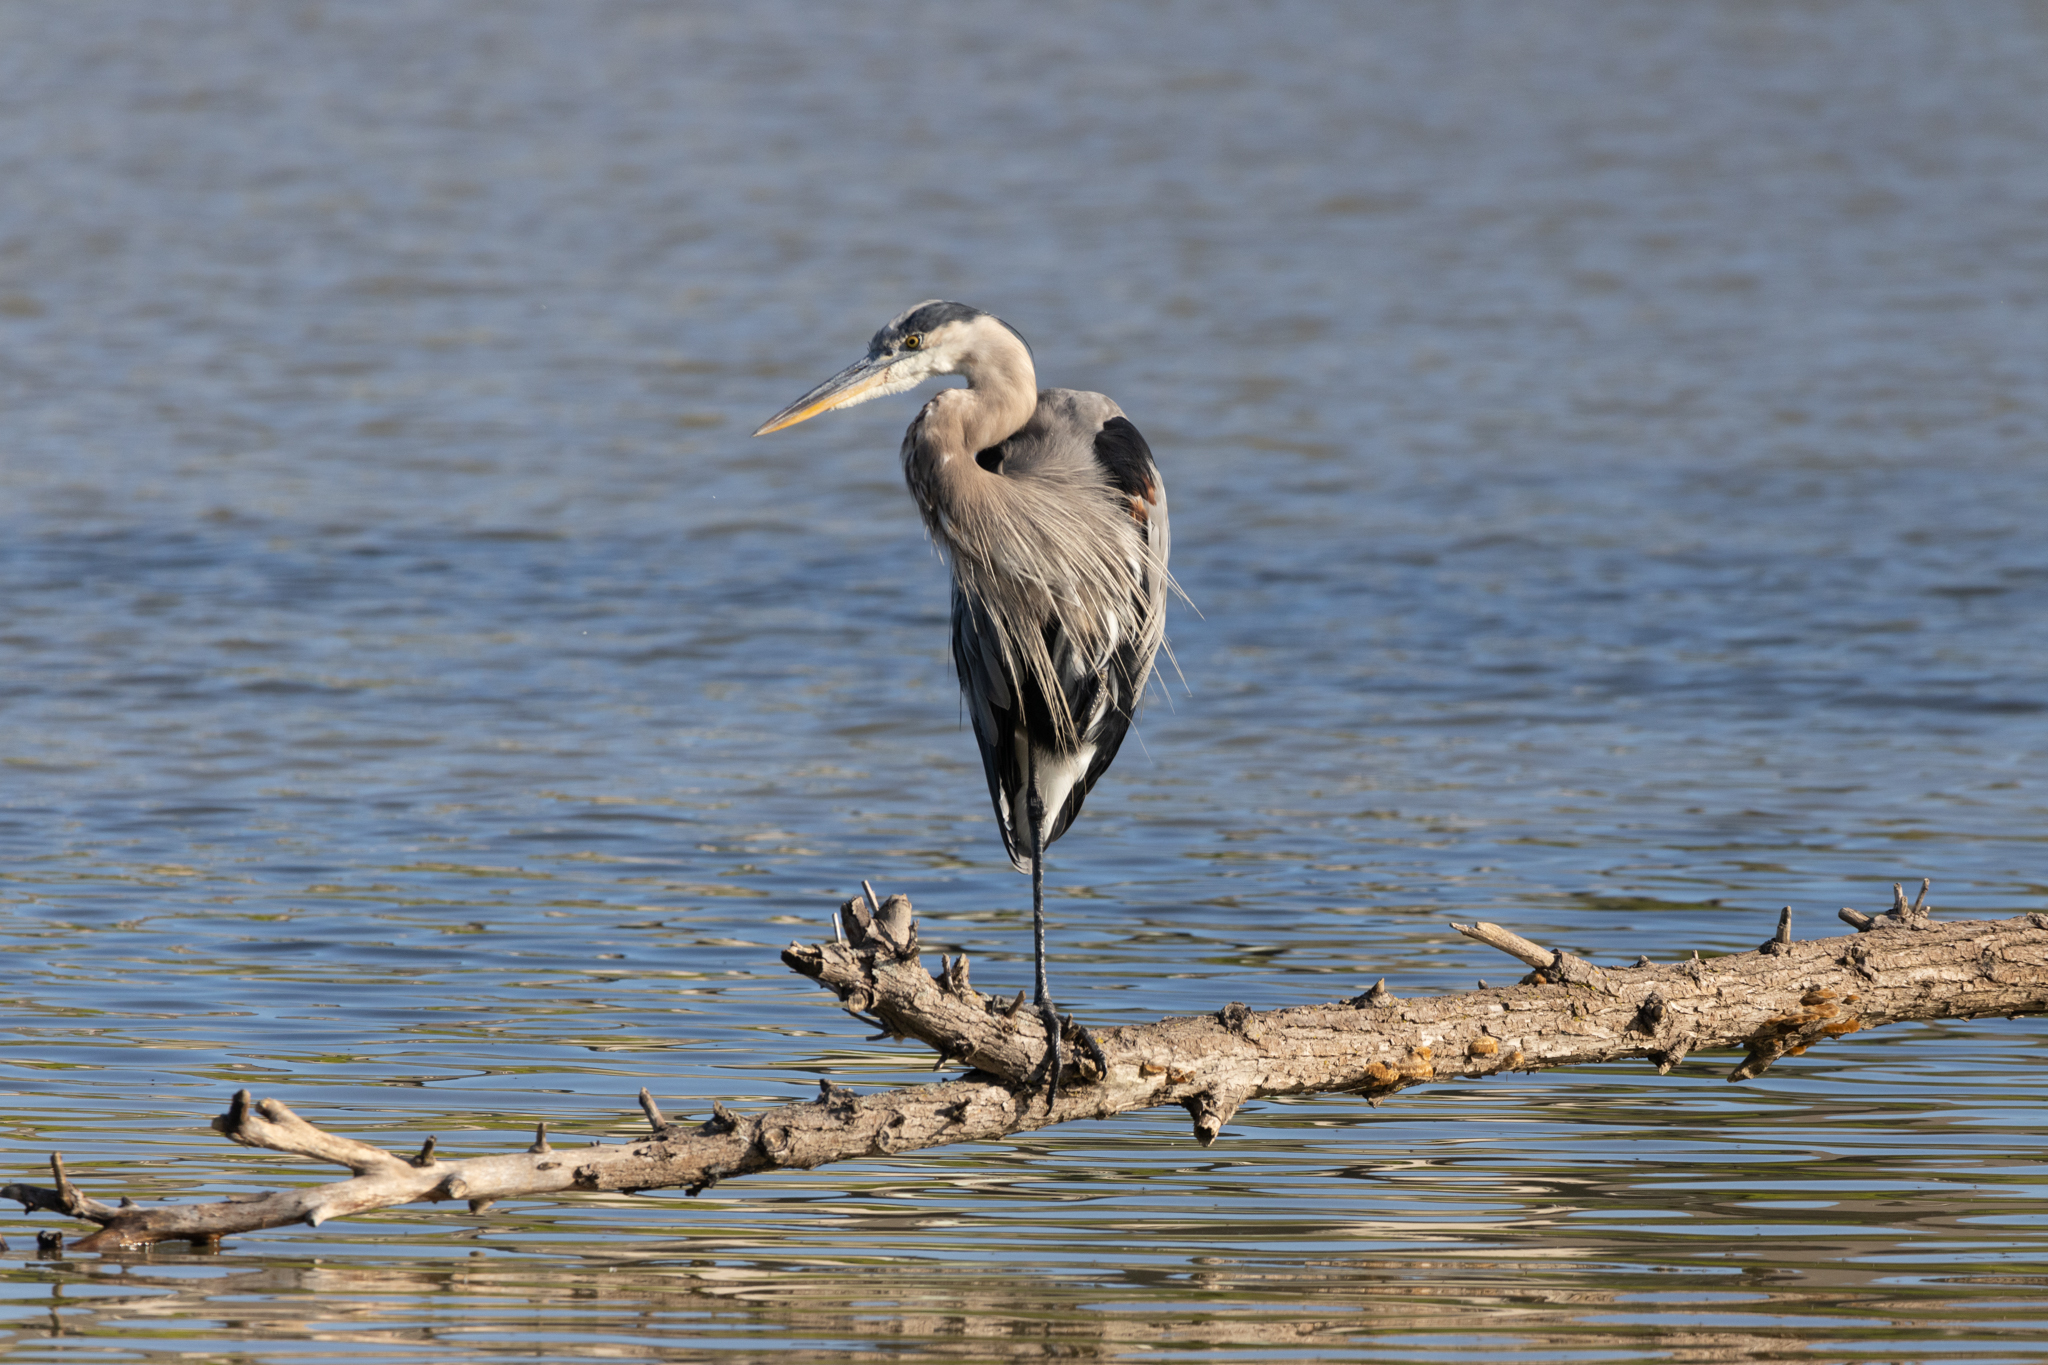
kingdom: Animalia
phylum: Chordata
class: Aves
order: Pelecaniformes
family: Ardeidae
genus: Ardea
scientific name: Ardea herodias
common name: Great blue heron
